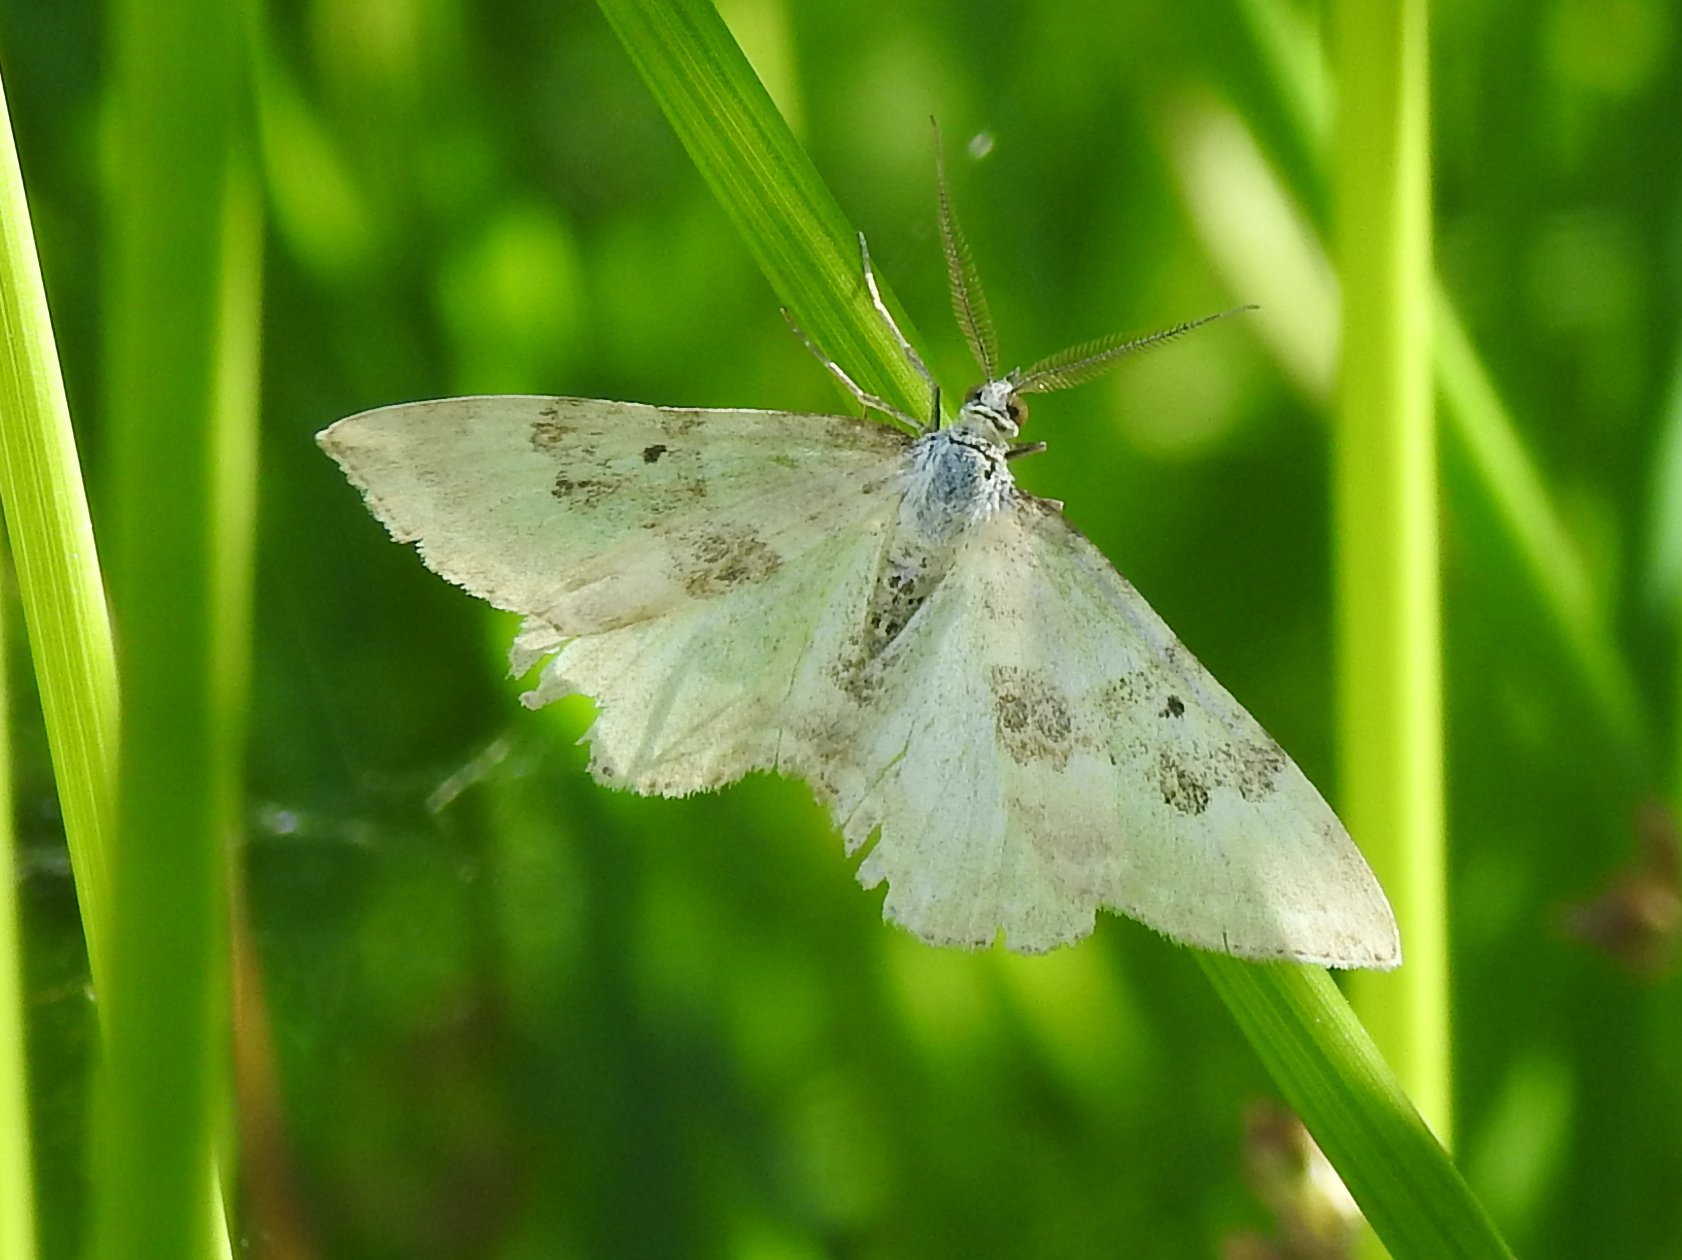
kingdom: Animalia
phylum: Arthropoda
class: Insecta
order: Lepidoptera
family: Geometridae
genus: Xanthorhoe
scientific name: Xanthorhoe montanata
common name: Silver-ground carpet
